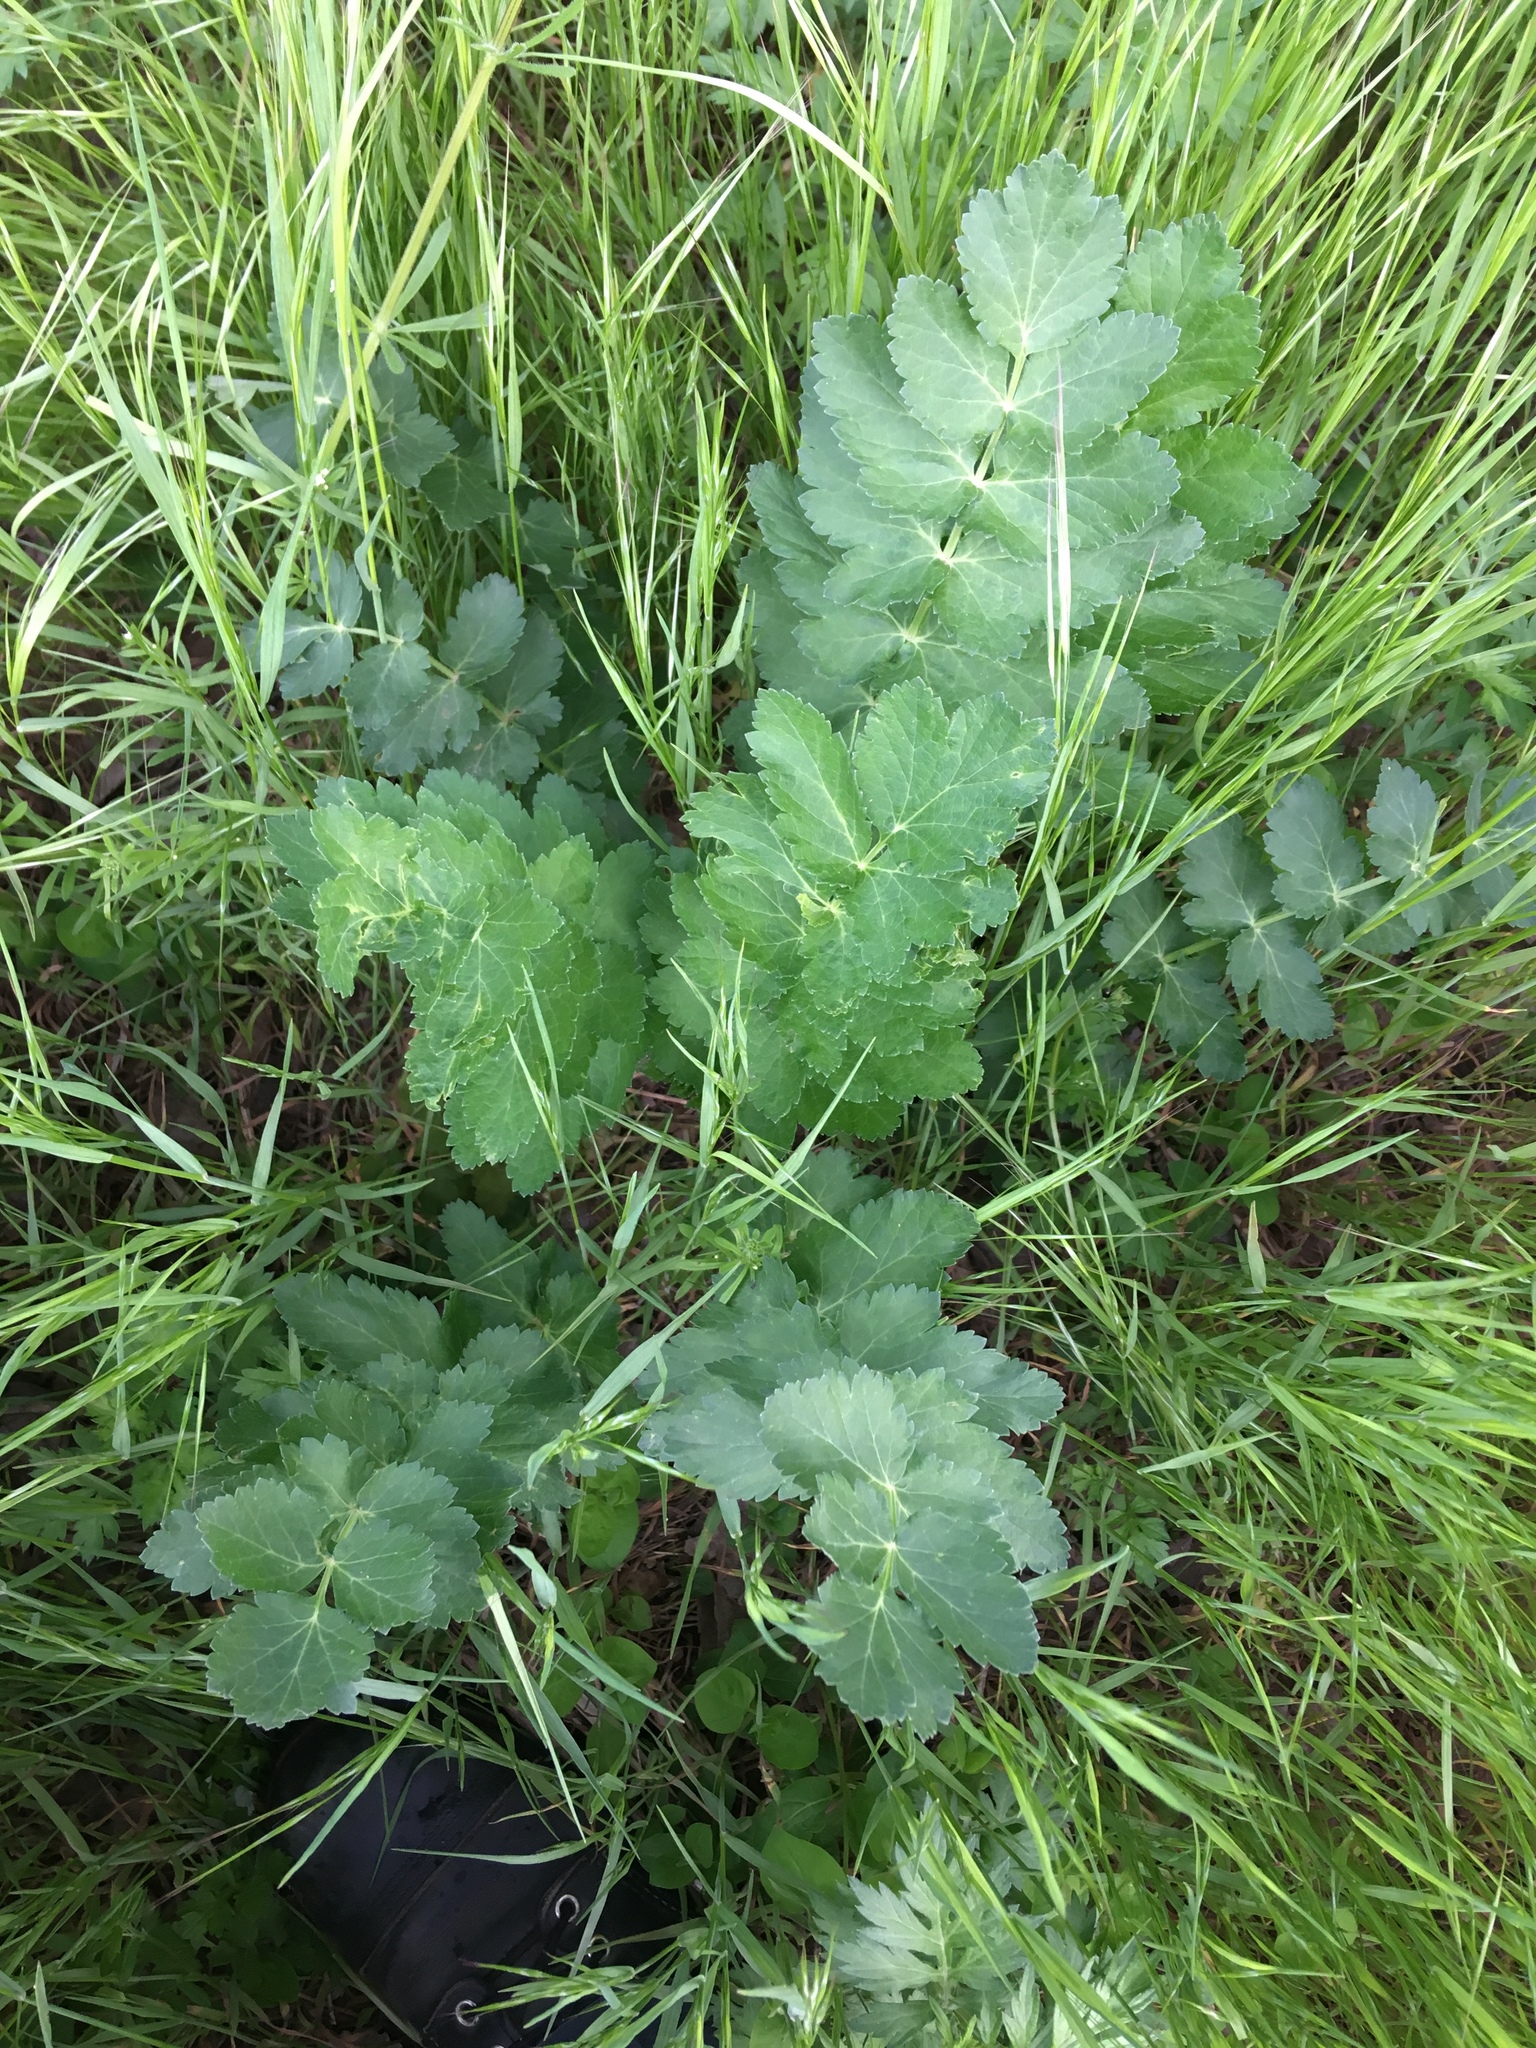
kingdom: Plantae
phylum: Tracheophyta
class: Magnoliopsida
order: Apiales
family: Apiaceae
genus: Pastinaca
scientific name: Pastinaca sativa
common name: Wild parsnip
